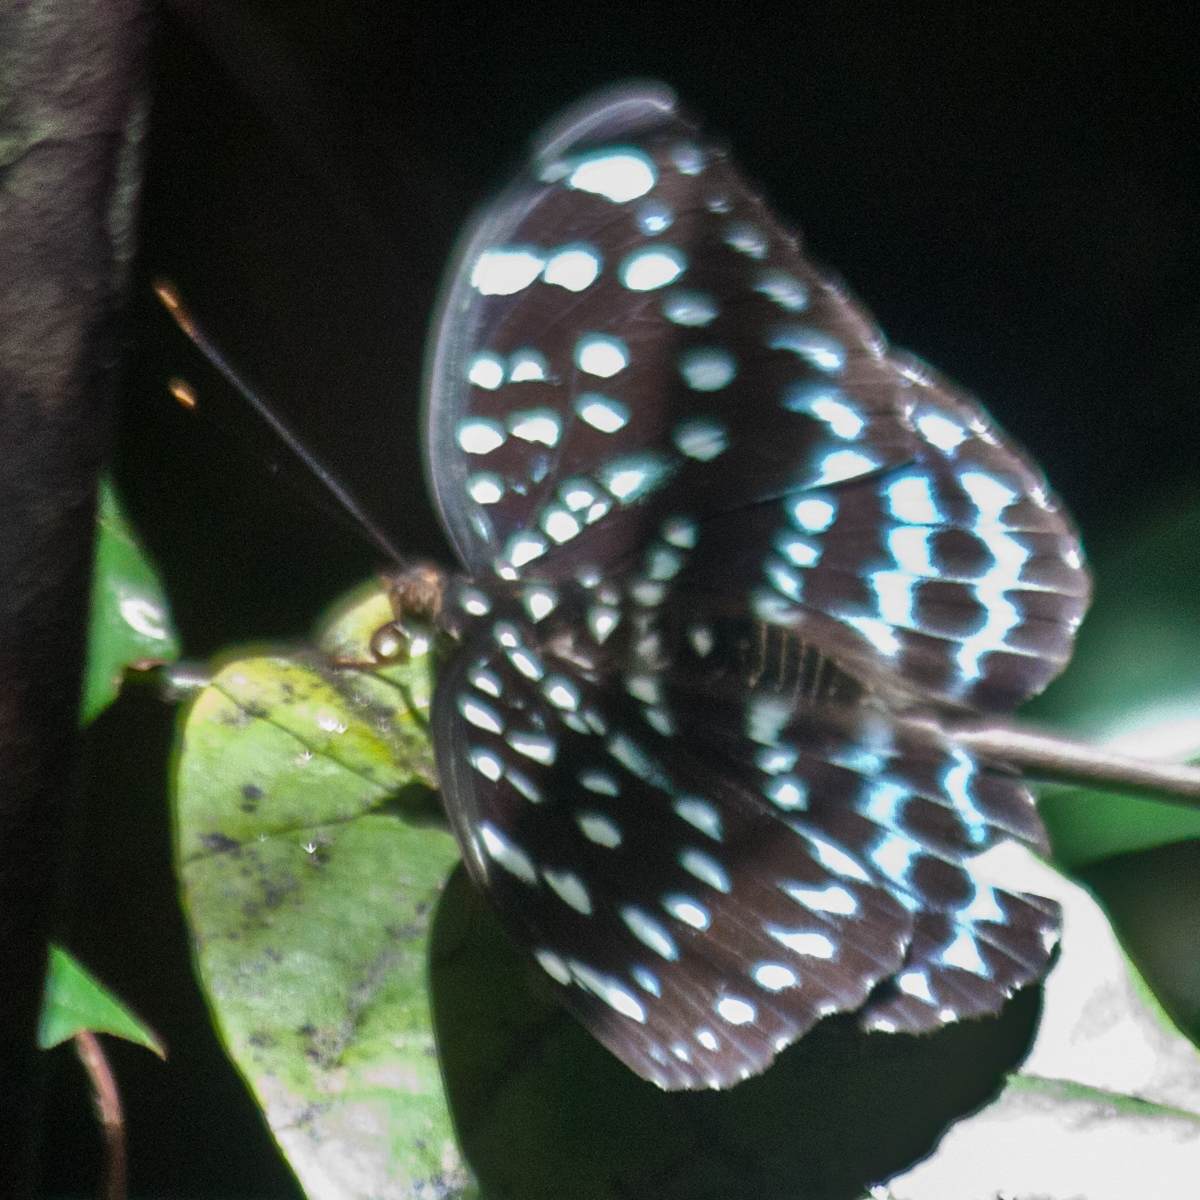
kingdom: Animalia
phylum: Arthropoda
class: Insecta
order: Lepidoptera
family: Nymphalidae
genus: Lexias
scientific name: Lexias
